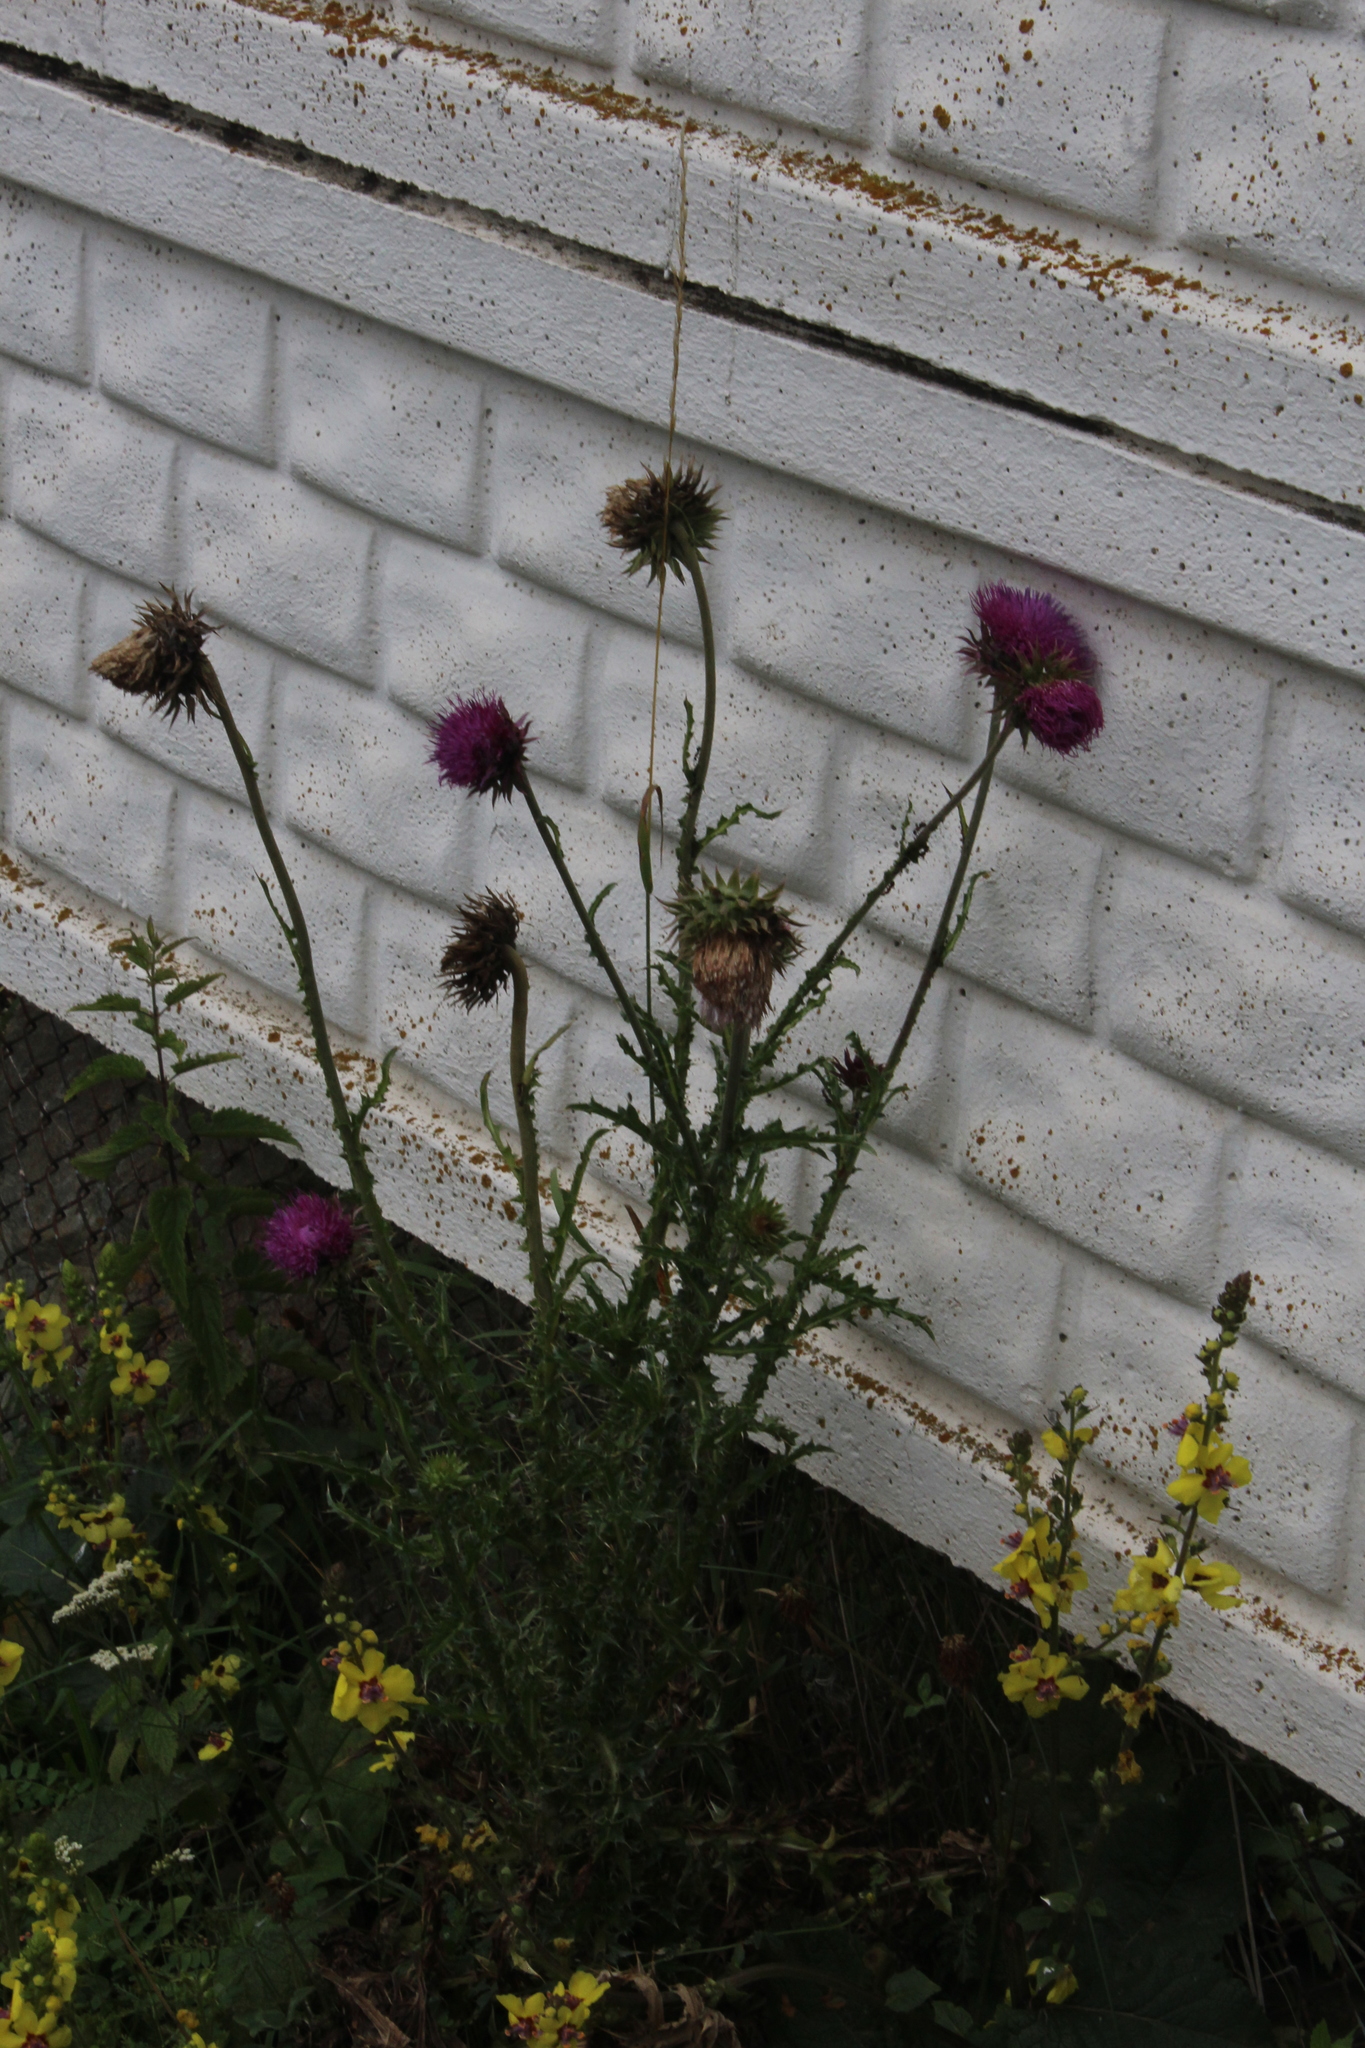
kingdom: Plantae
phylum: Tracheophyta
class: Magnoliopsida
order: Asterales
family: Asteraceae
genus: Carduus
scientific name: Carduus nutans
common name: Musk thistle
